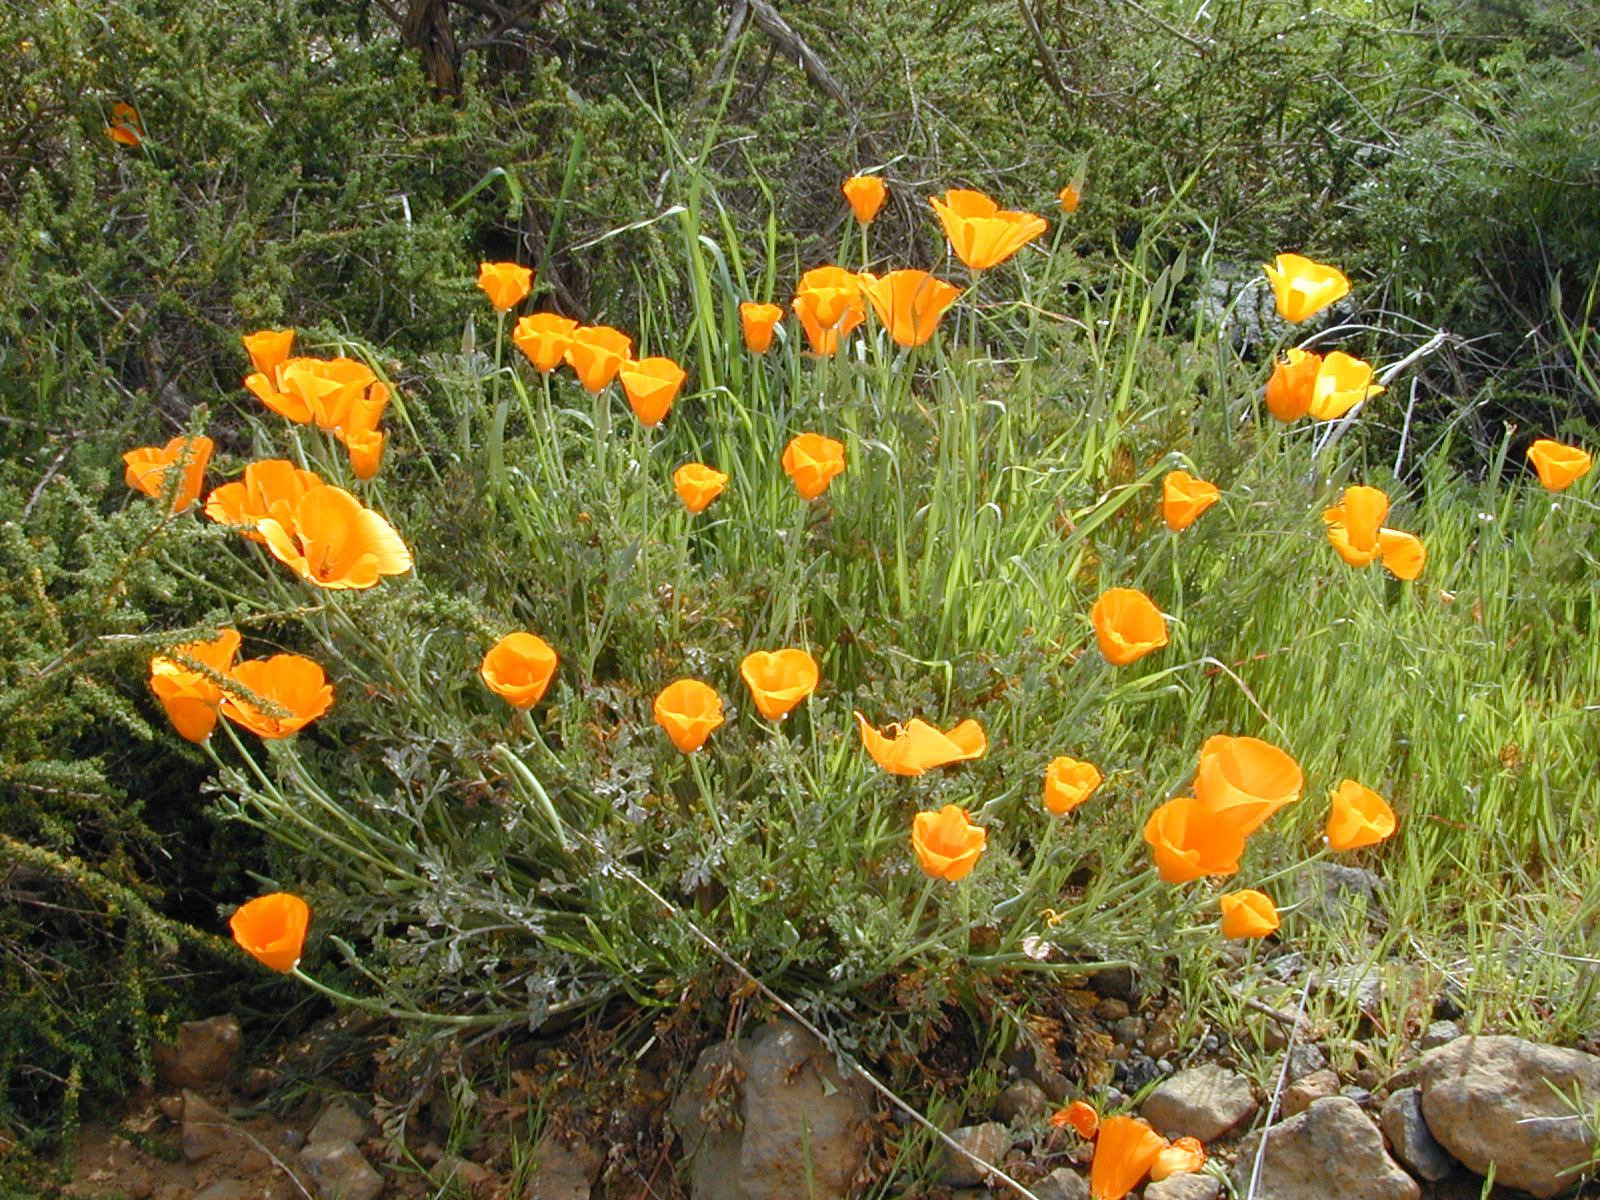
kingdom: Plantae
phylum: Tracheophyta
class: Magnoliopsida
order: Ranunculales
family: Papaveraceae
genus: Eschscholzia
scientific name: Eschscholzia californica
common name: California poppy
